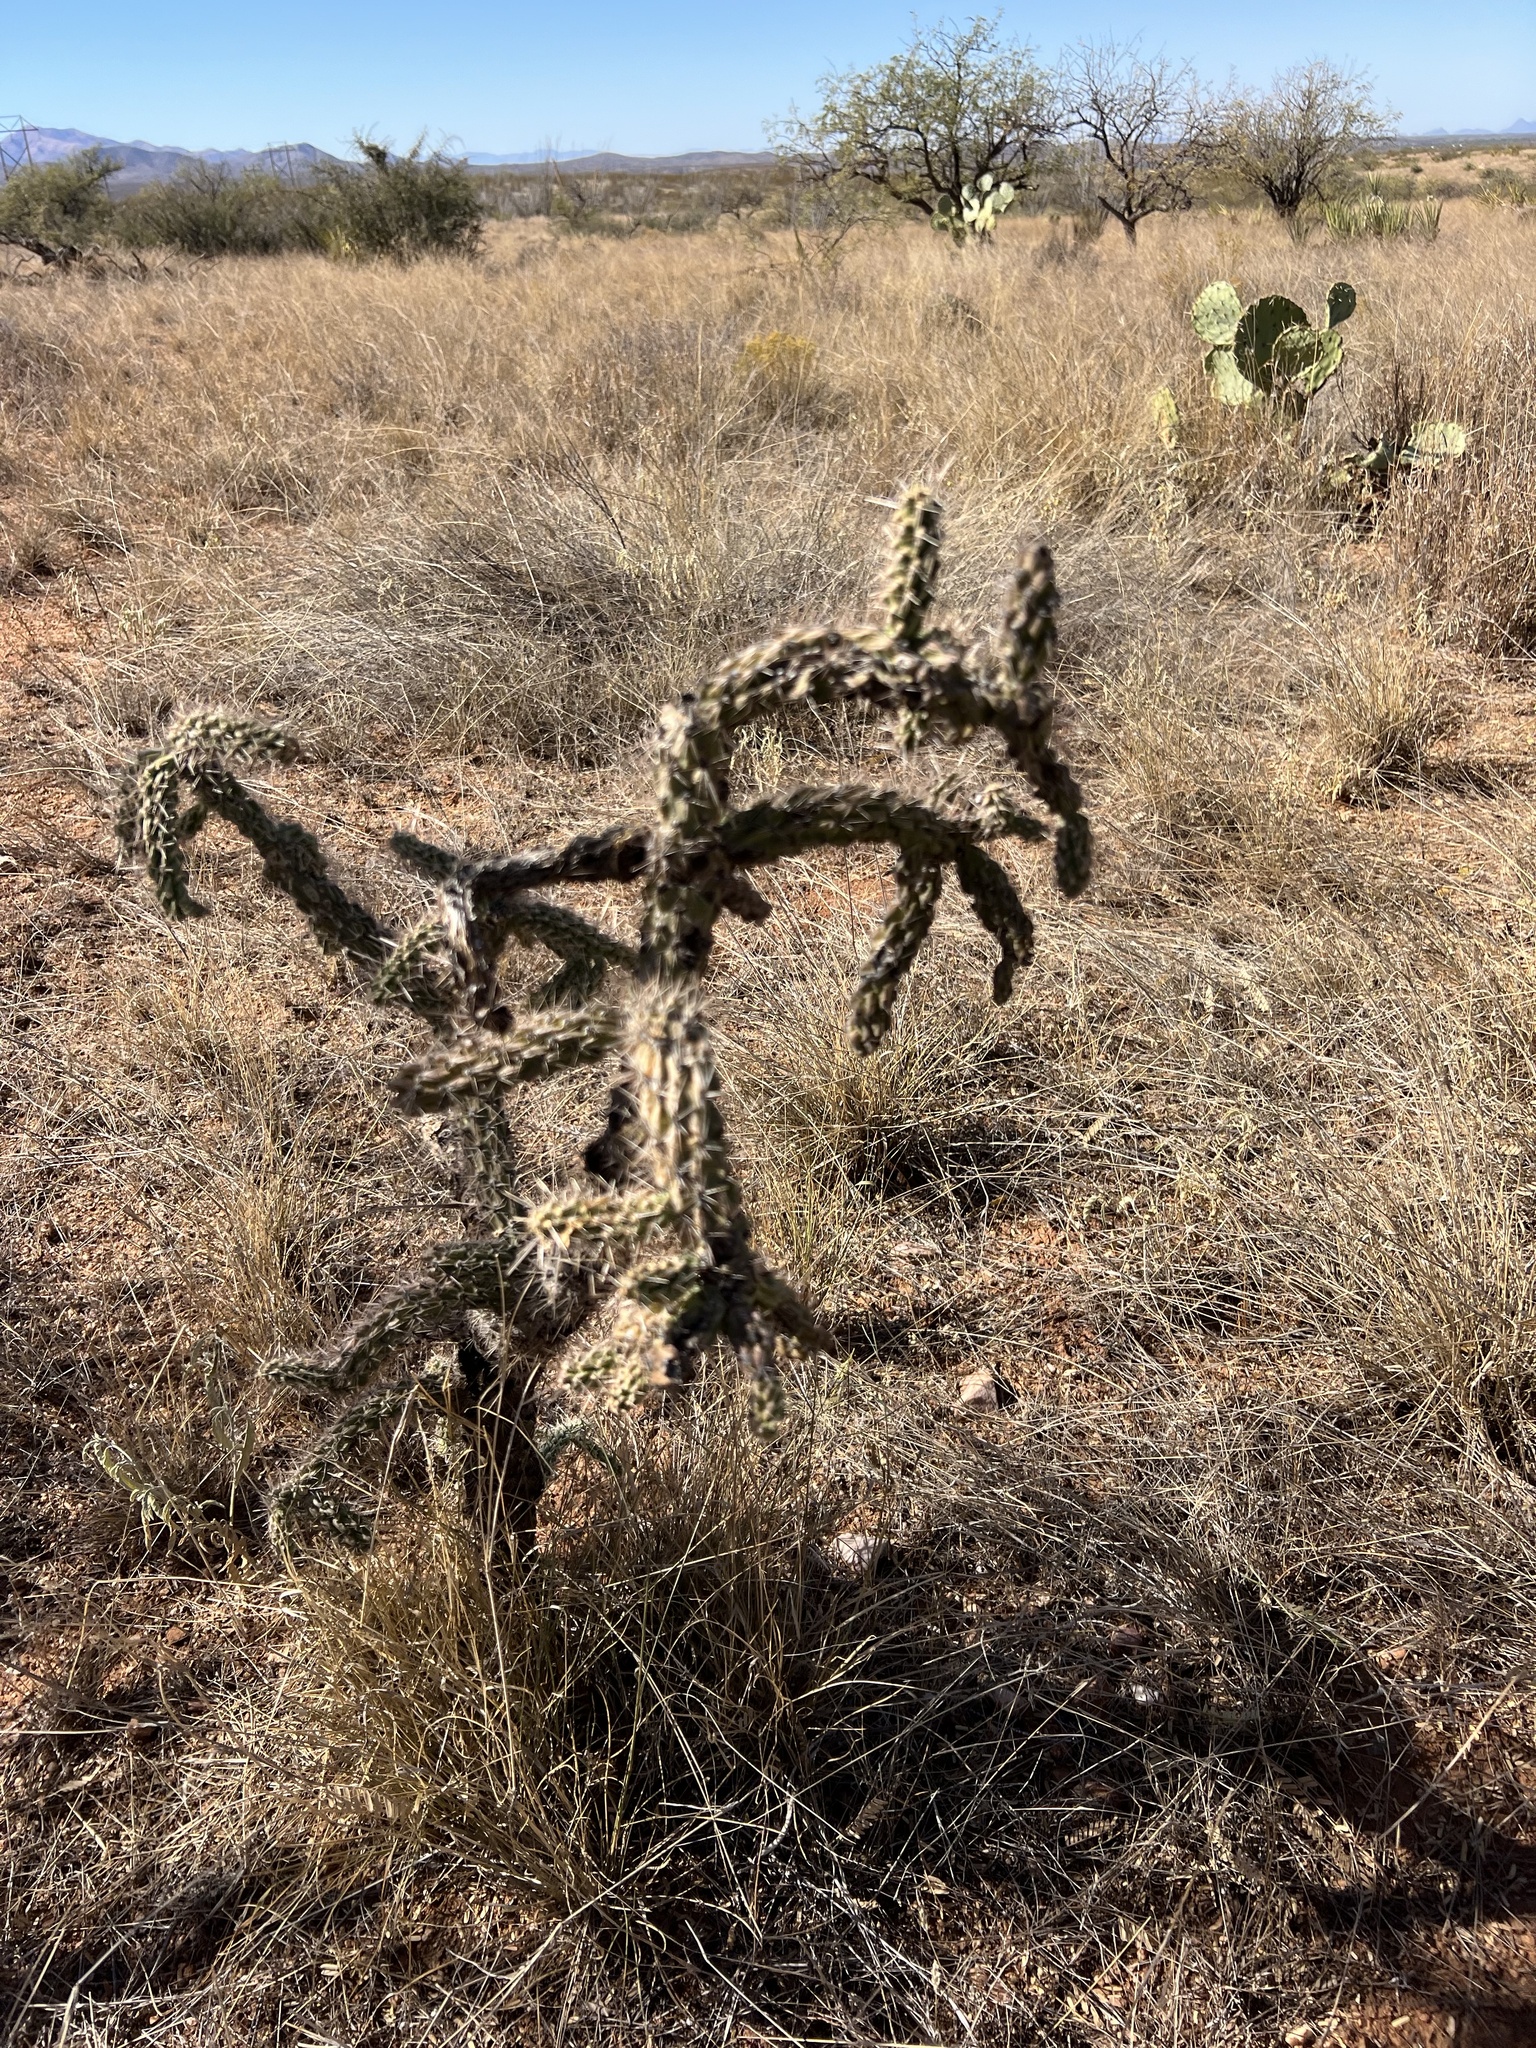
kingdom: Plantae
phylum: Tracheophyta
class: Magnoliopsida
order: Caryophyllales
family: Cactaceae
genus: Cylindropuntia
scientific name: Cylindropuntia imbricata
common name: Candelabrum cactus
